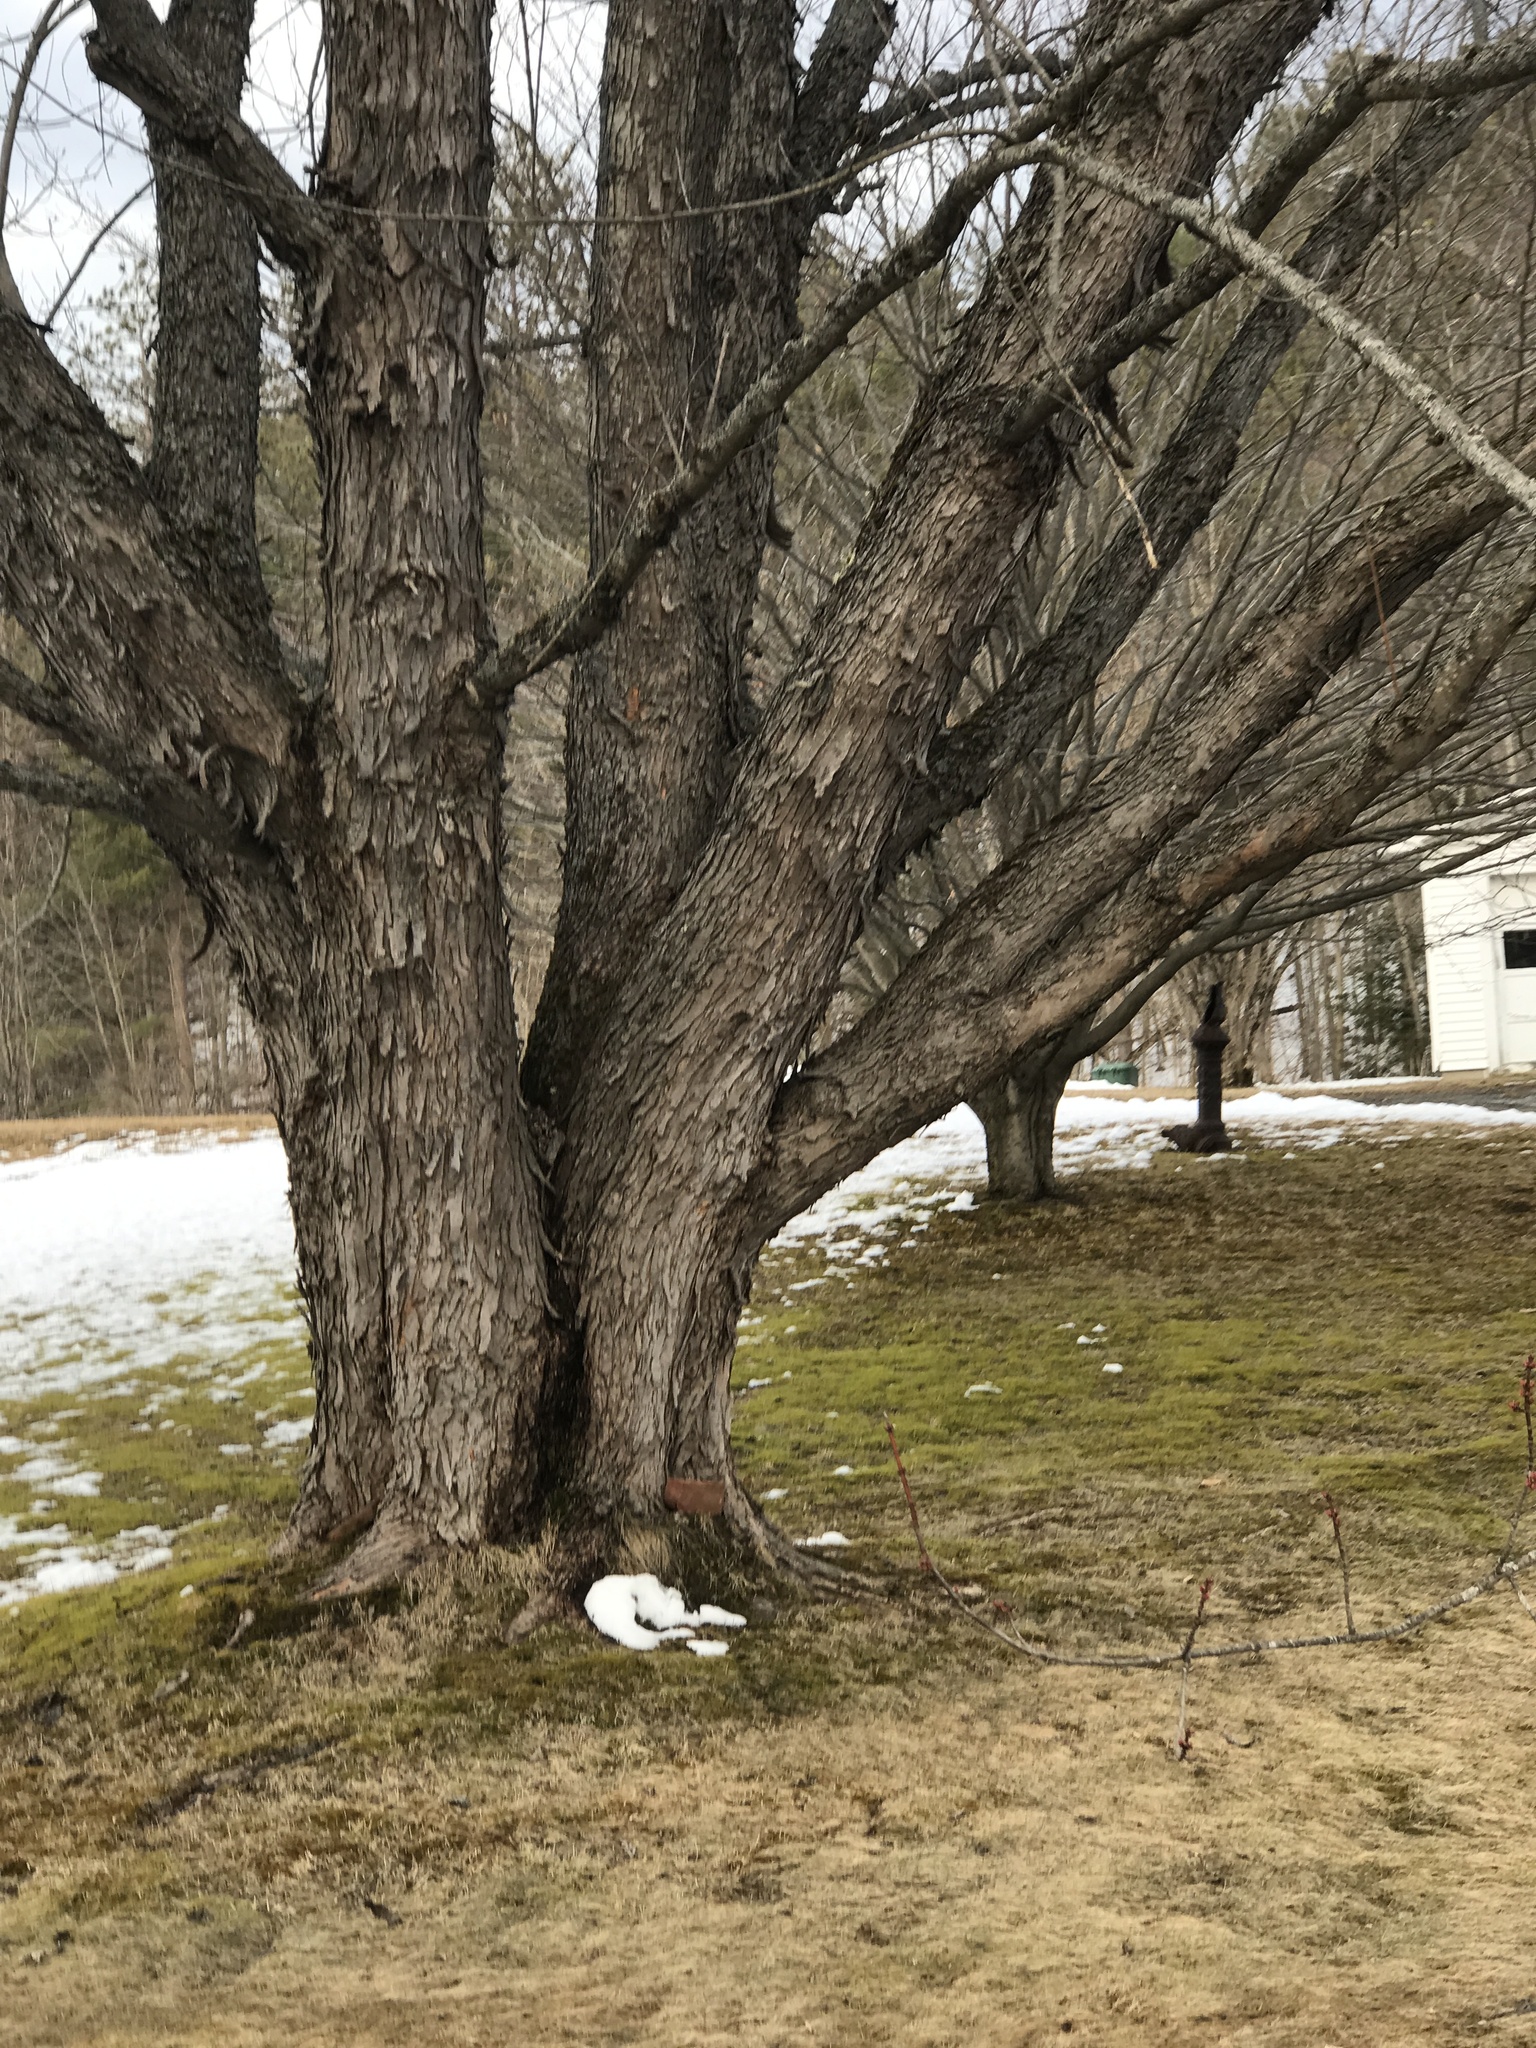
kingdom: Plantae
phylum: Tracheophyta
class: Magnoliopsida
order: Sapindales
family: Sapindaceae
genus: Acer
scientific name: Acer saccharinum
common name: Silver maple
